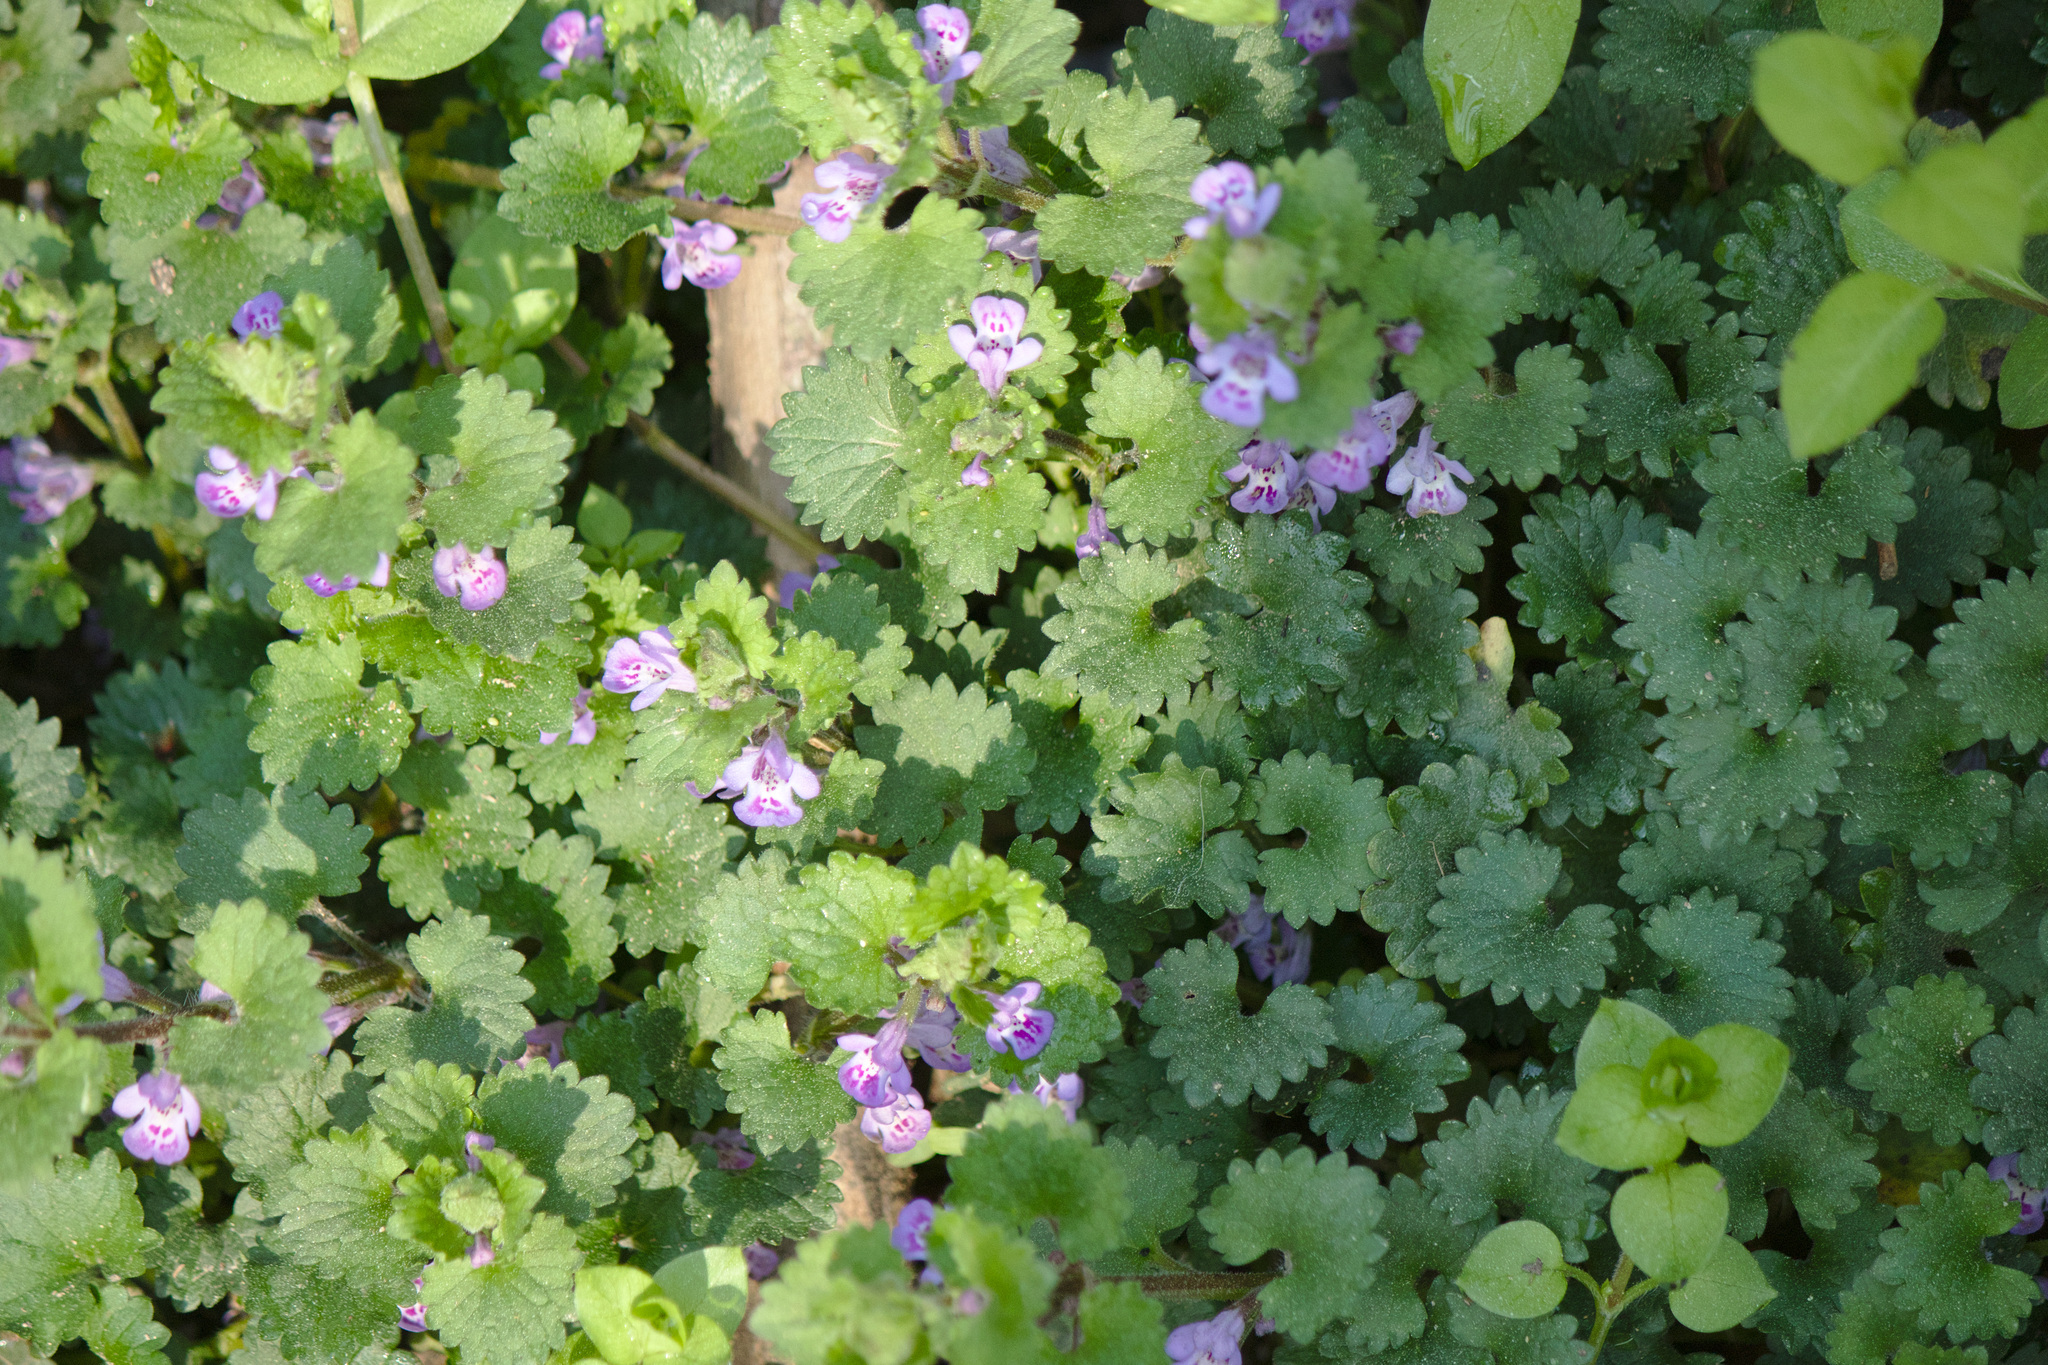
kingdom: Plantae
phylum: Tracheophyta
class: Magnoliopsida
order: Lamiales
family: Lamiaceae
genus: Glechoma
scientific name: Glechoma hederacea
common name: Ground ivy
